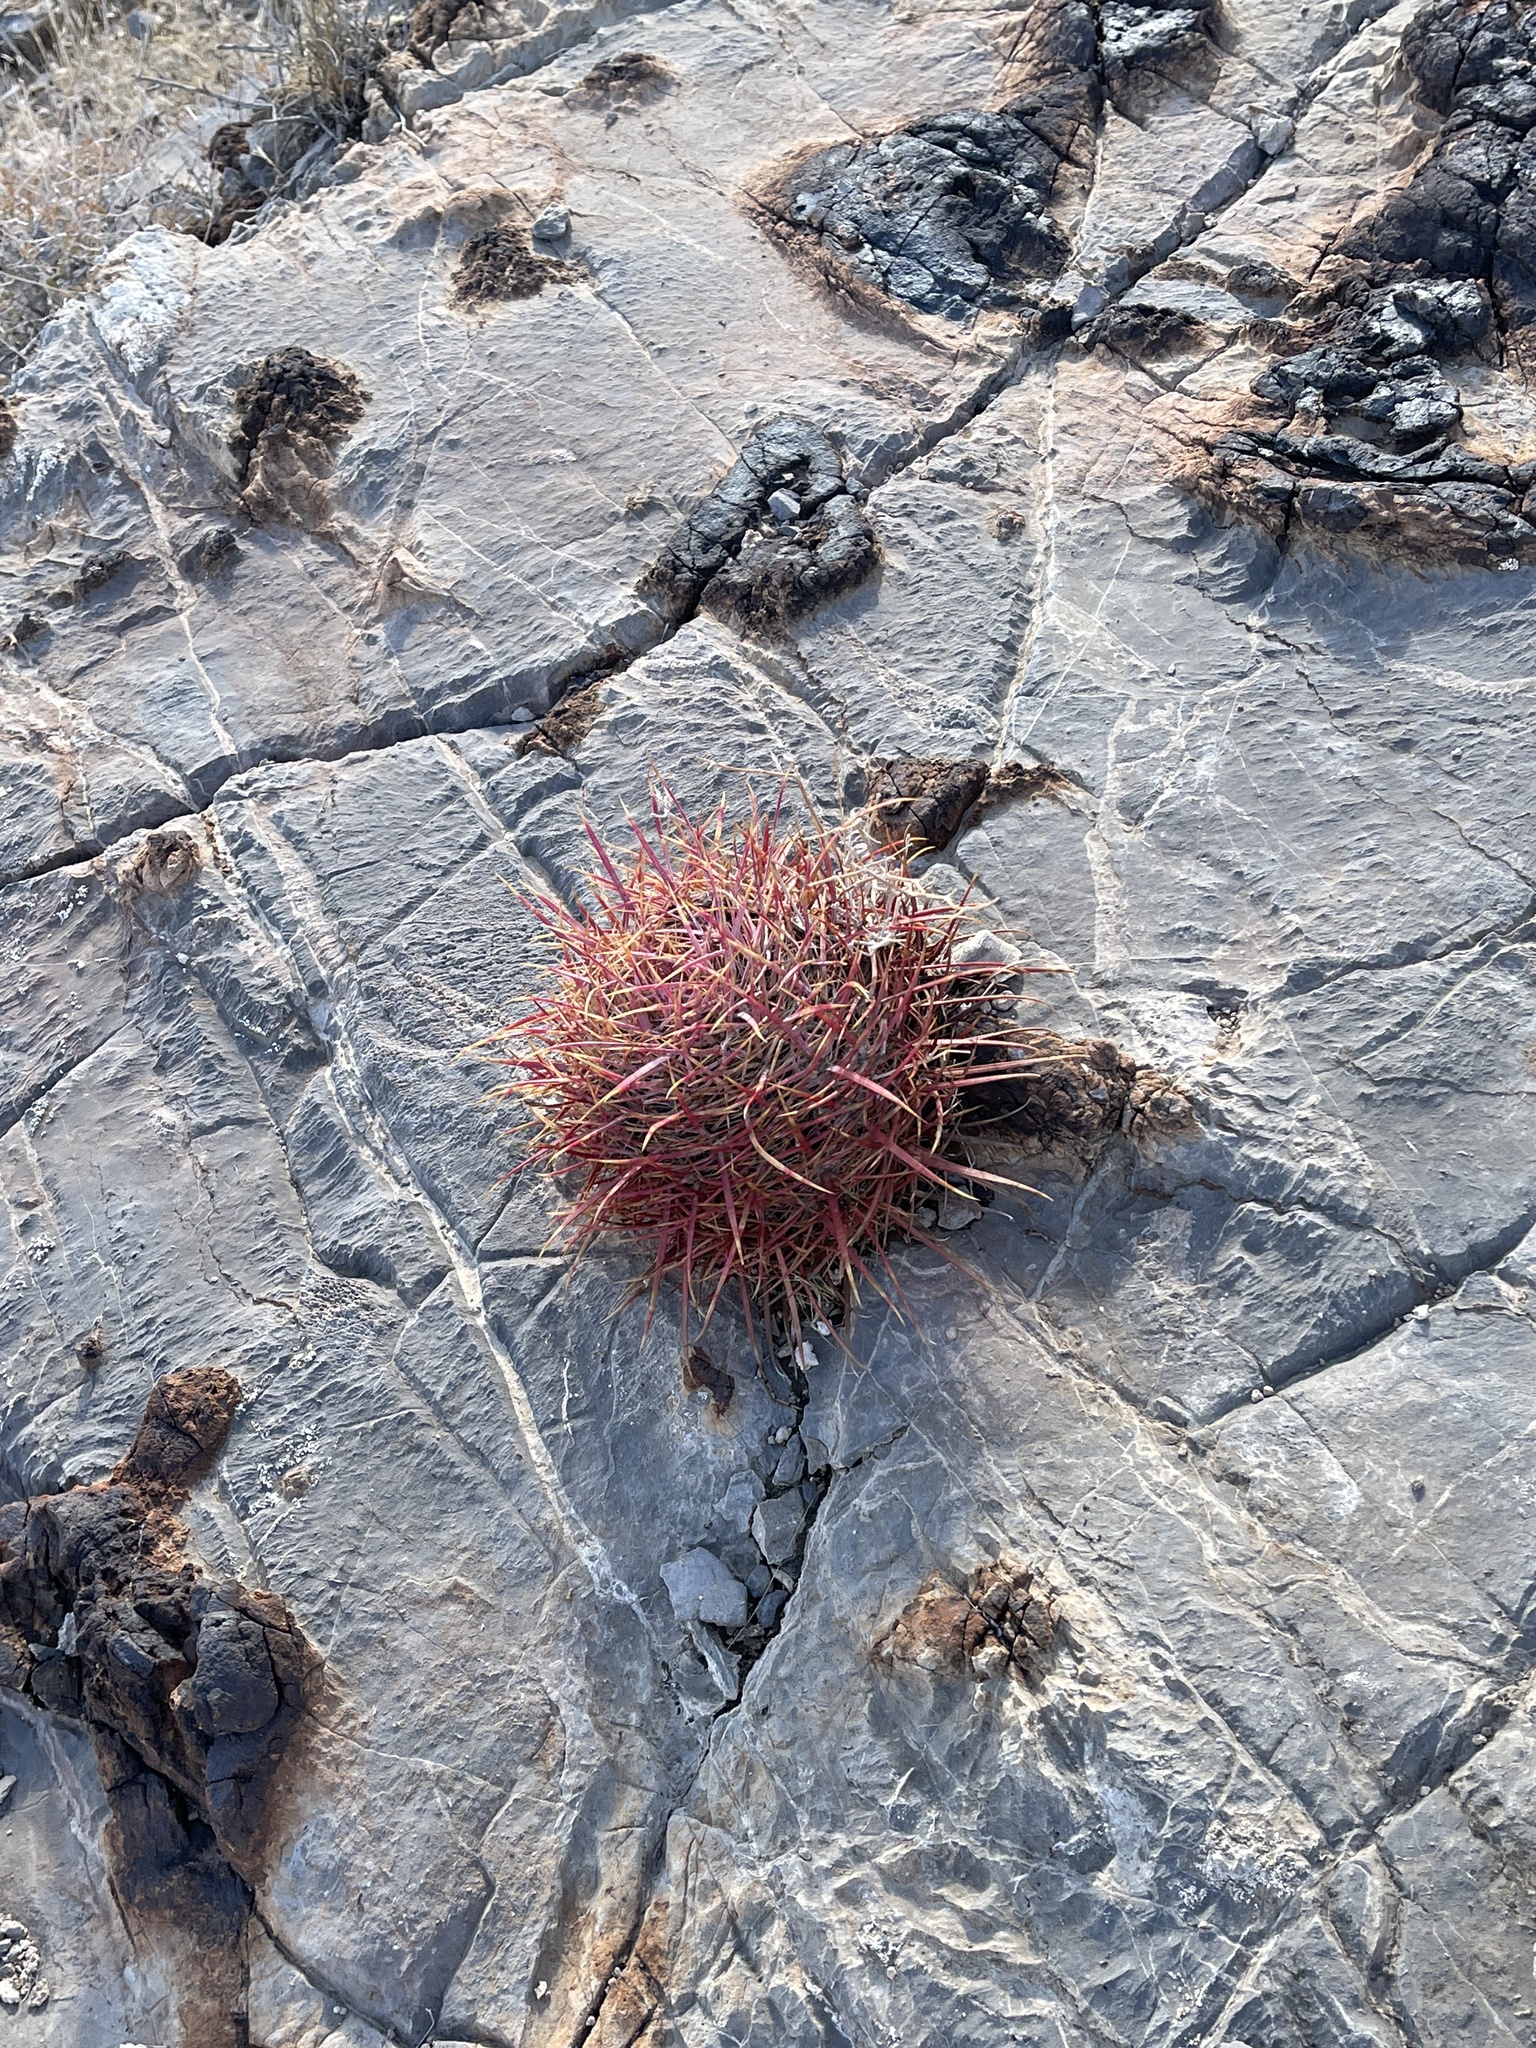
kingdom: Plantae
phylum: Tracheophyta
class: Magnoliopsida
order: Caryophyllales
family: Cactaceae
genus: Ferocactus
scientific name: Ferocactus cylindraceus
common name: California barrel cactus
